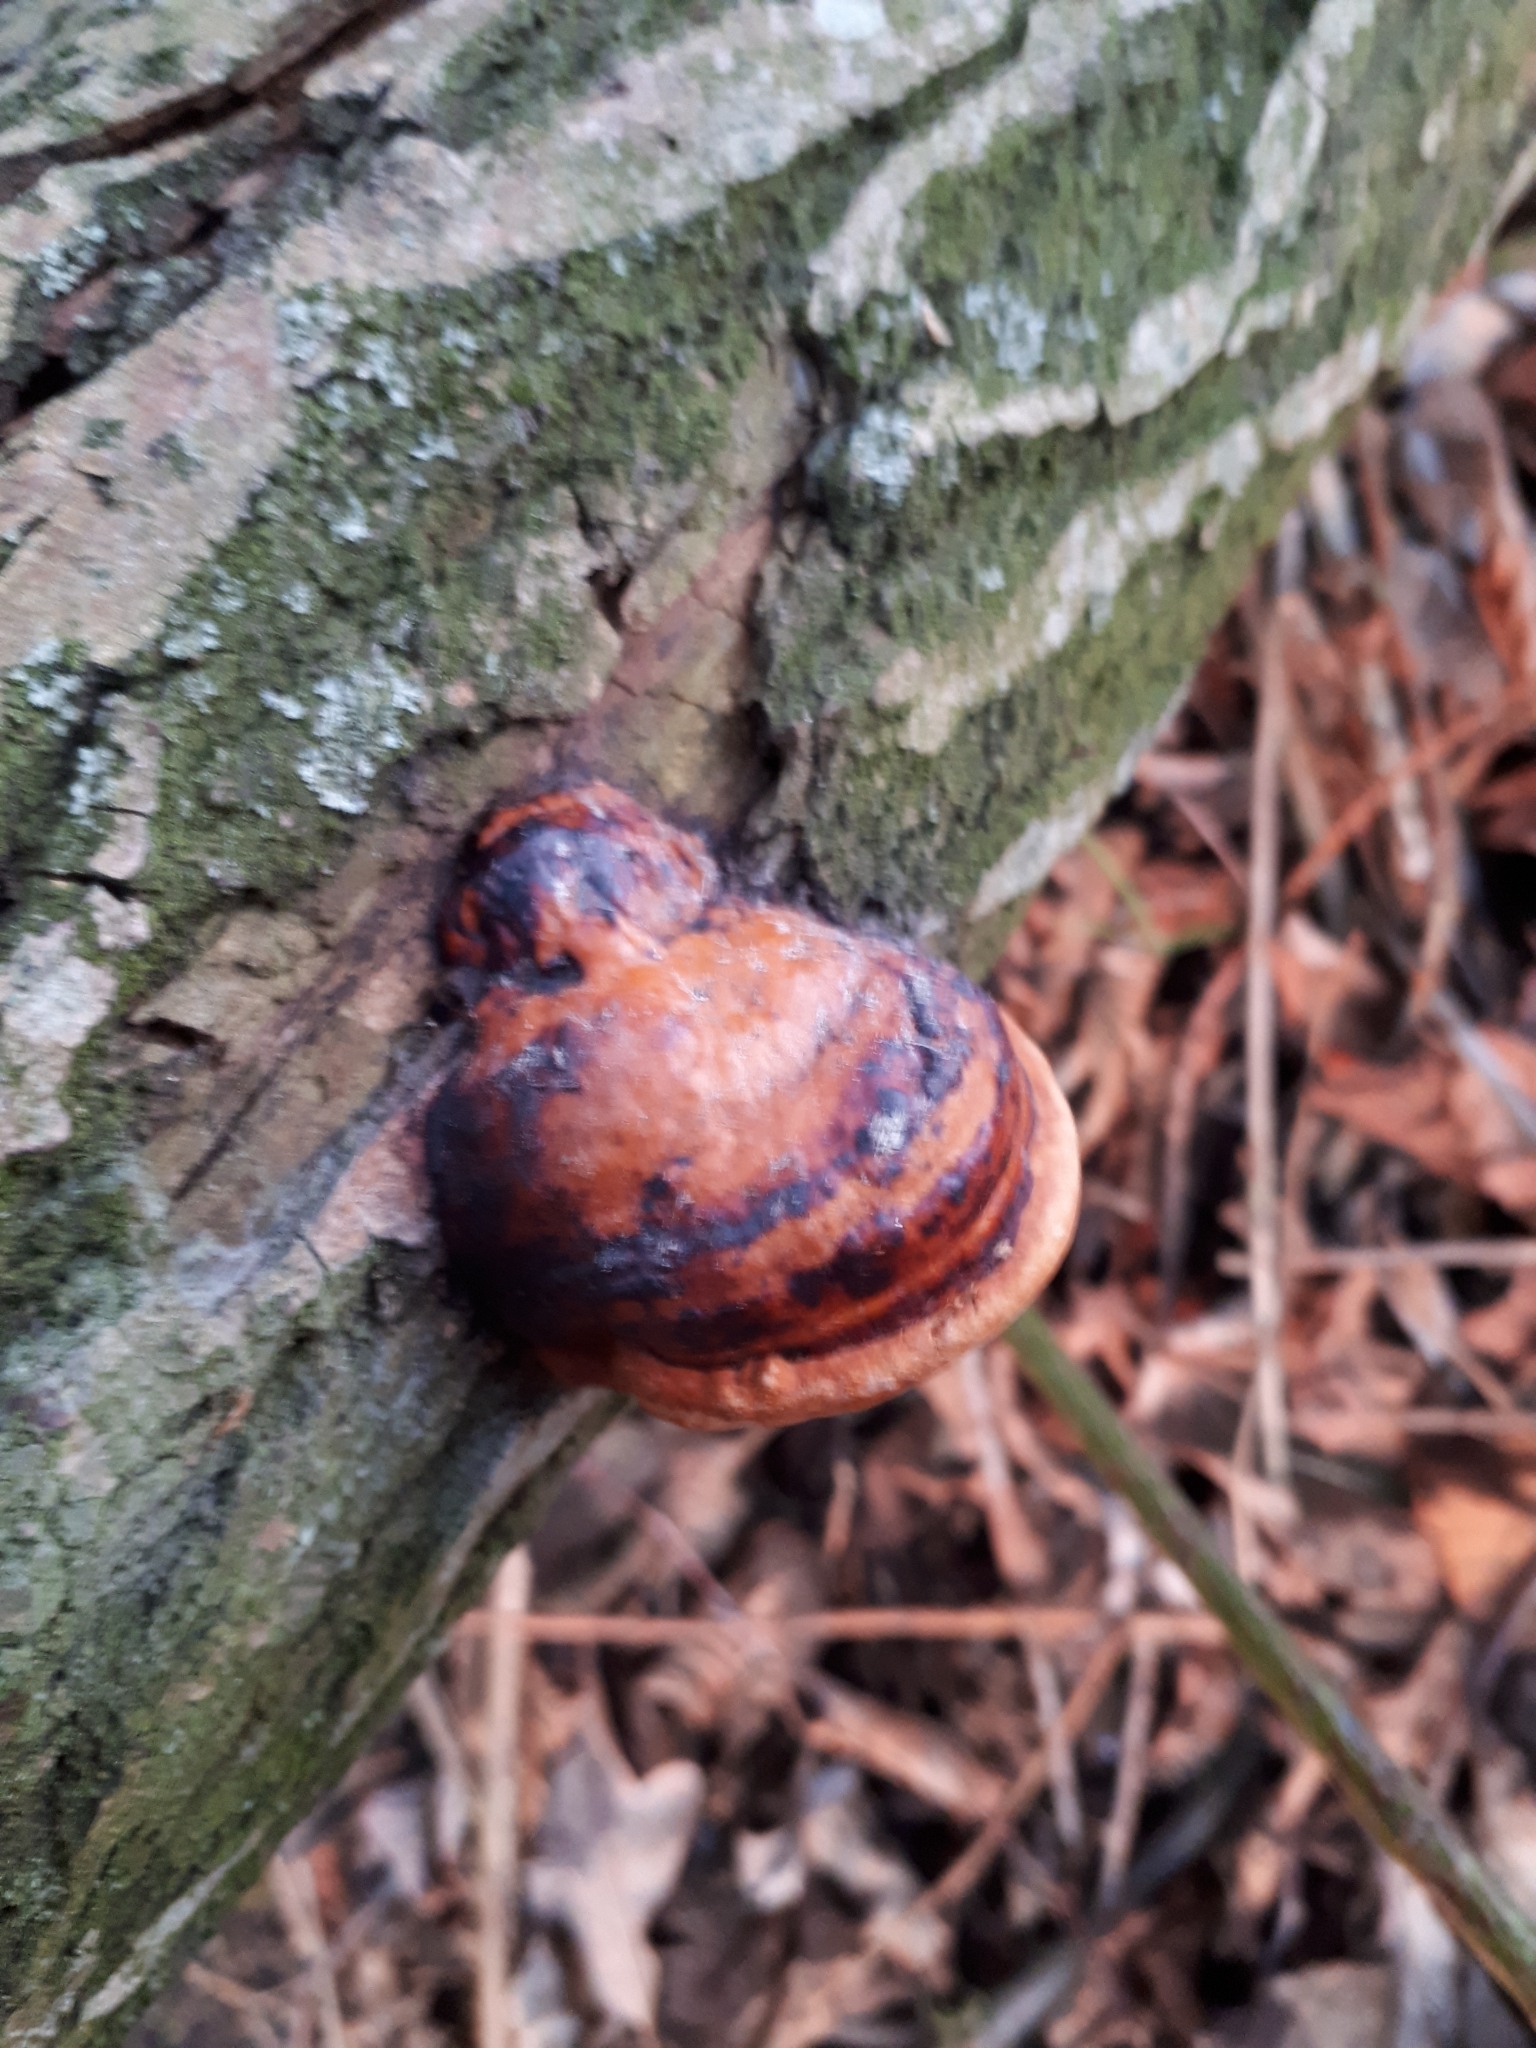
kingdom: Fungi
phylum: Basidiomycota
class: Agaricomycetes
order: Polyporales
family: Fomitopsidaceae
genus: Fomitopsis
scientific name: Fomitopsis pinicola
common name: Red-belted bracket
